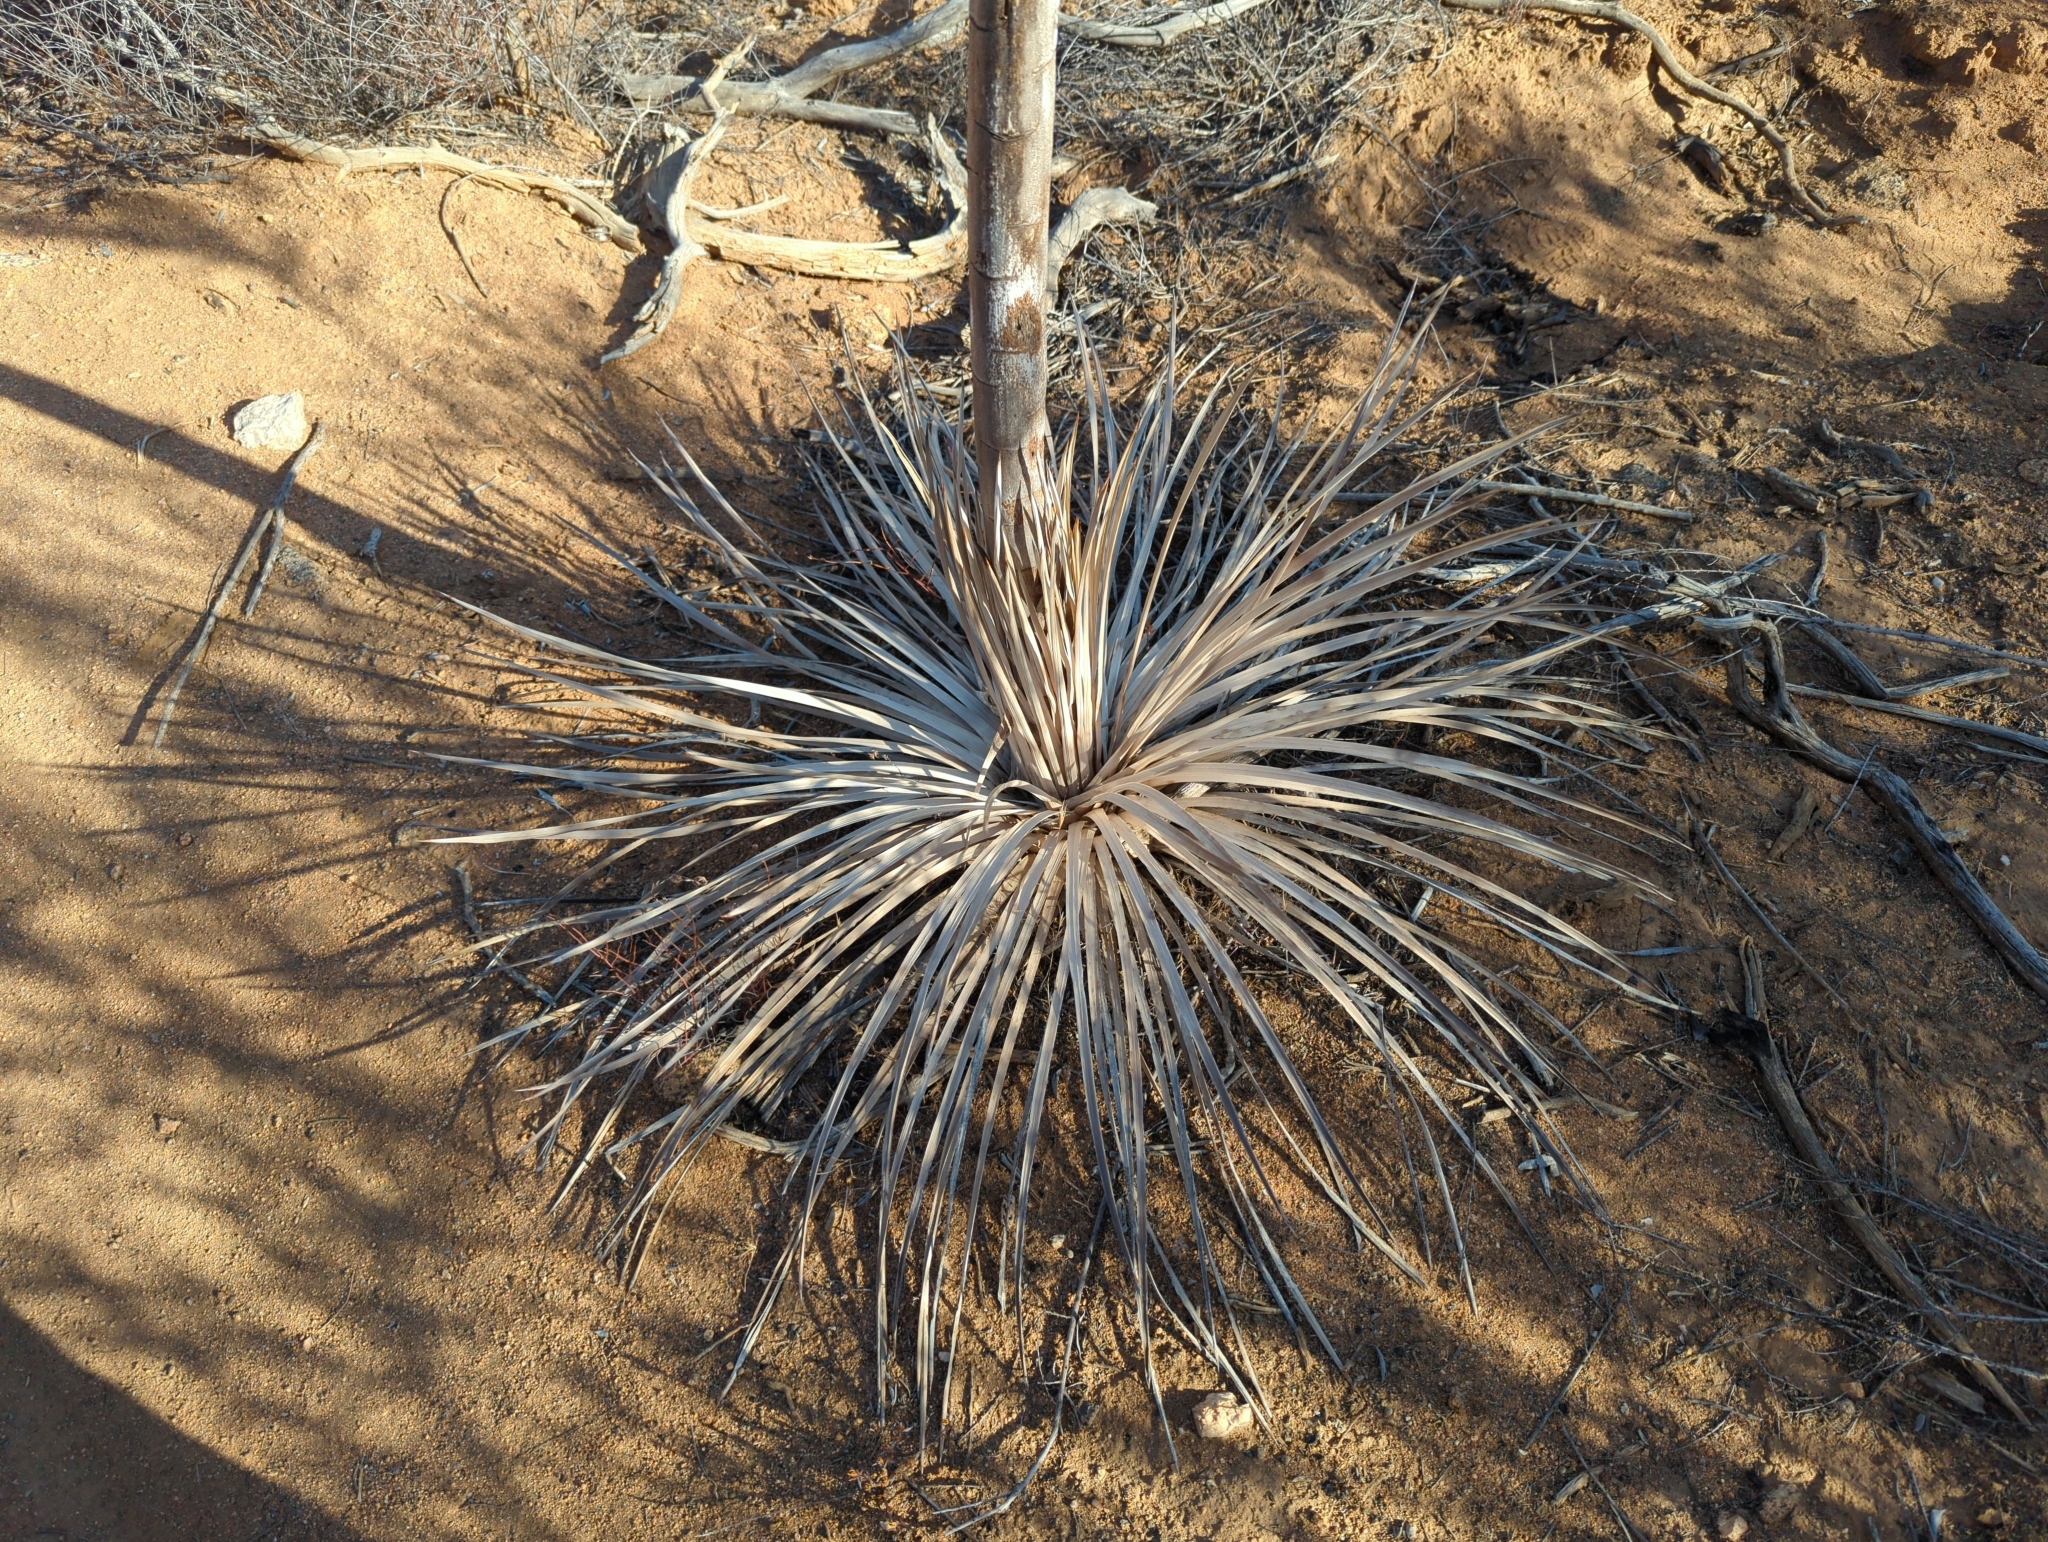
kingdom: Plantae
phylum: Tracheophyta
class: Liliopsida
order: Asparagales
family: Asparagaceae
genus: Hesperoyucca
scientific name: Hesperoyucca whipplei
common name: Our lord's-candle
